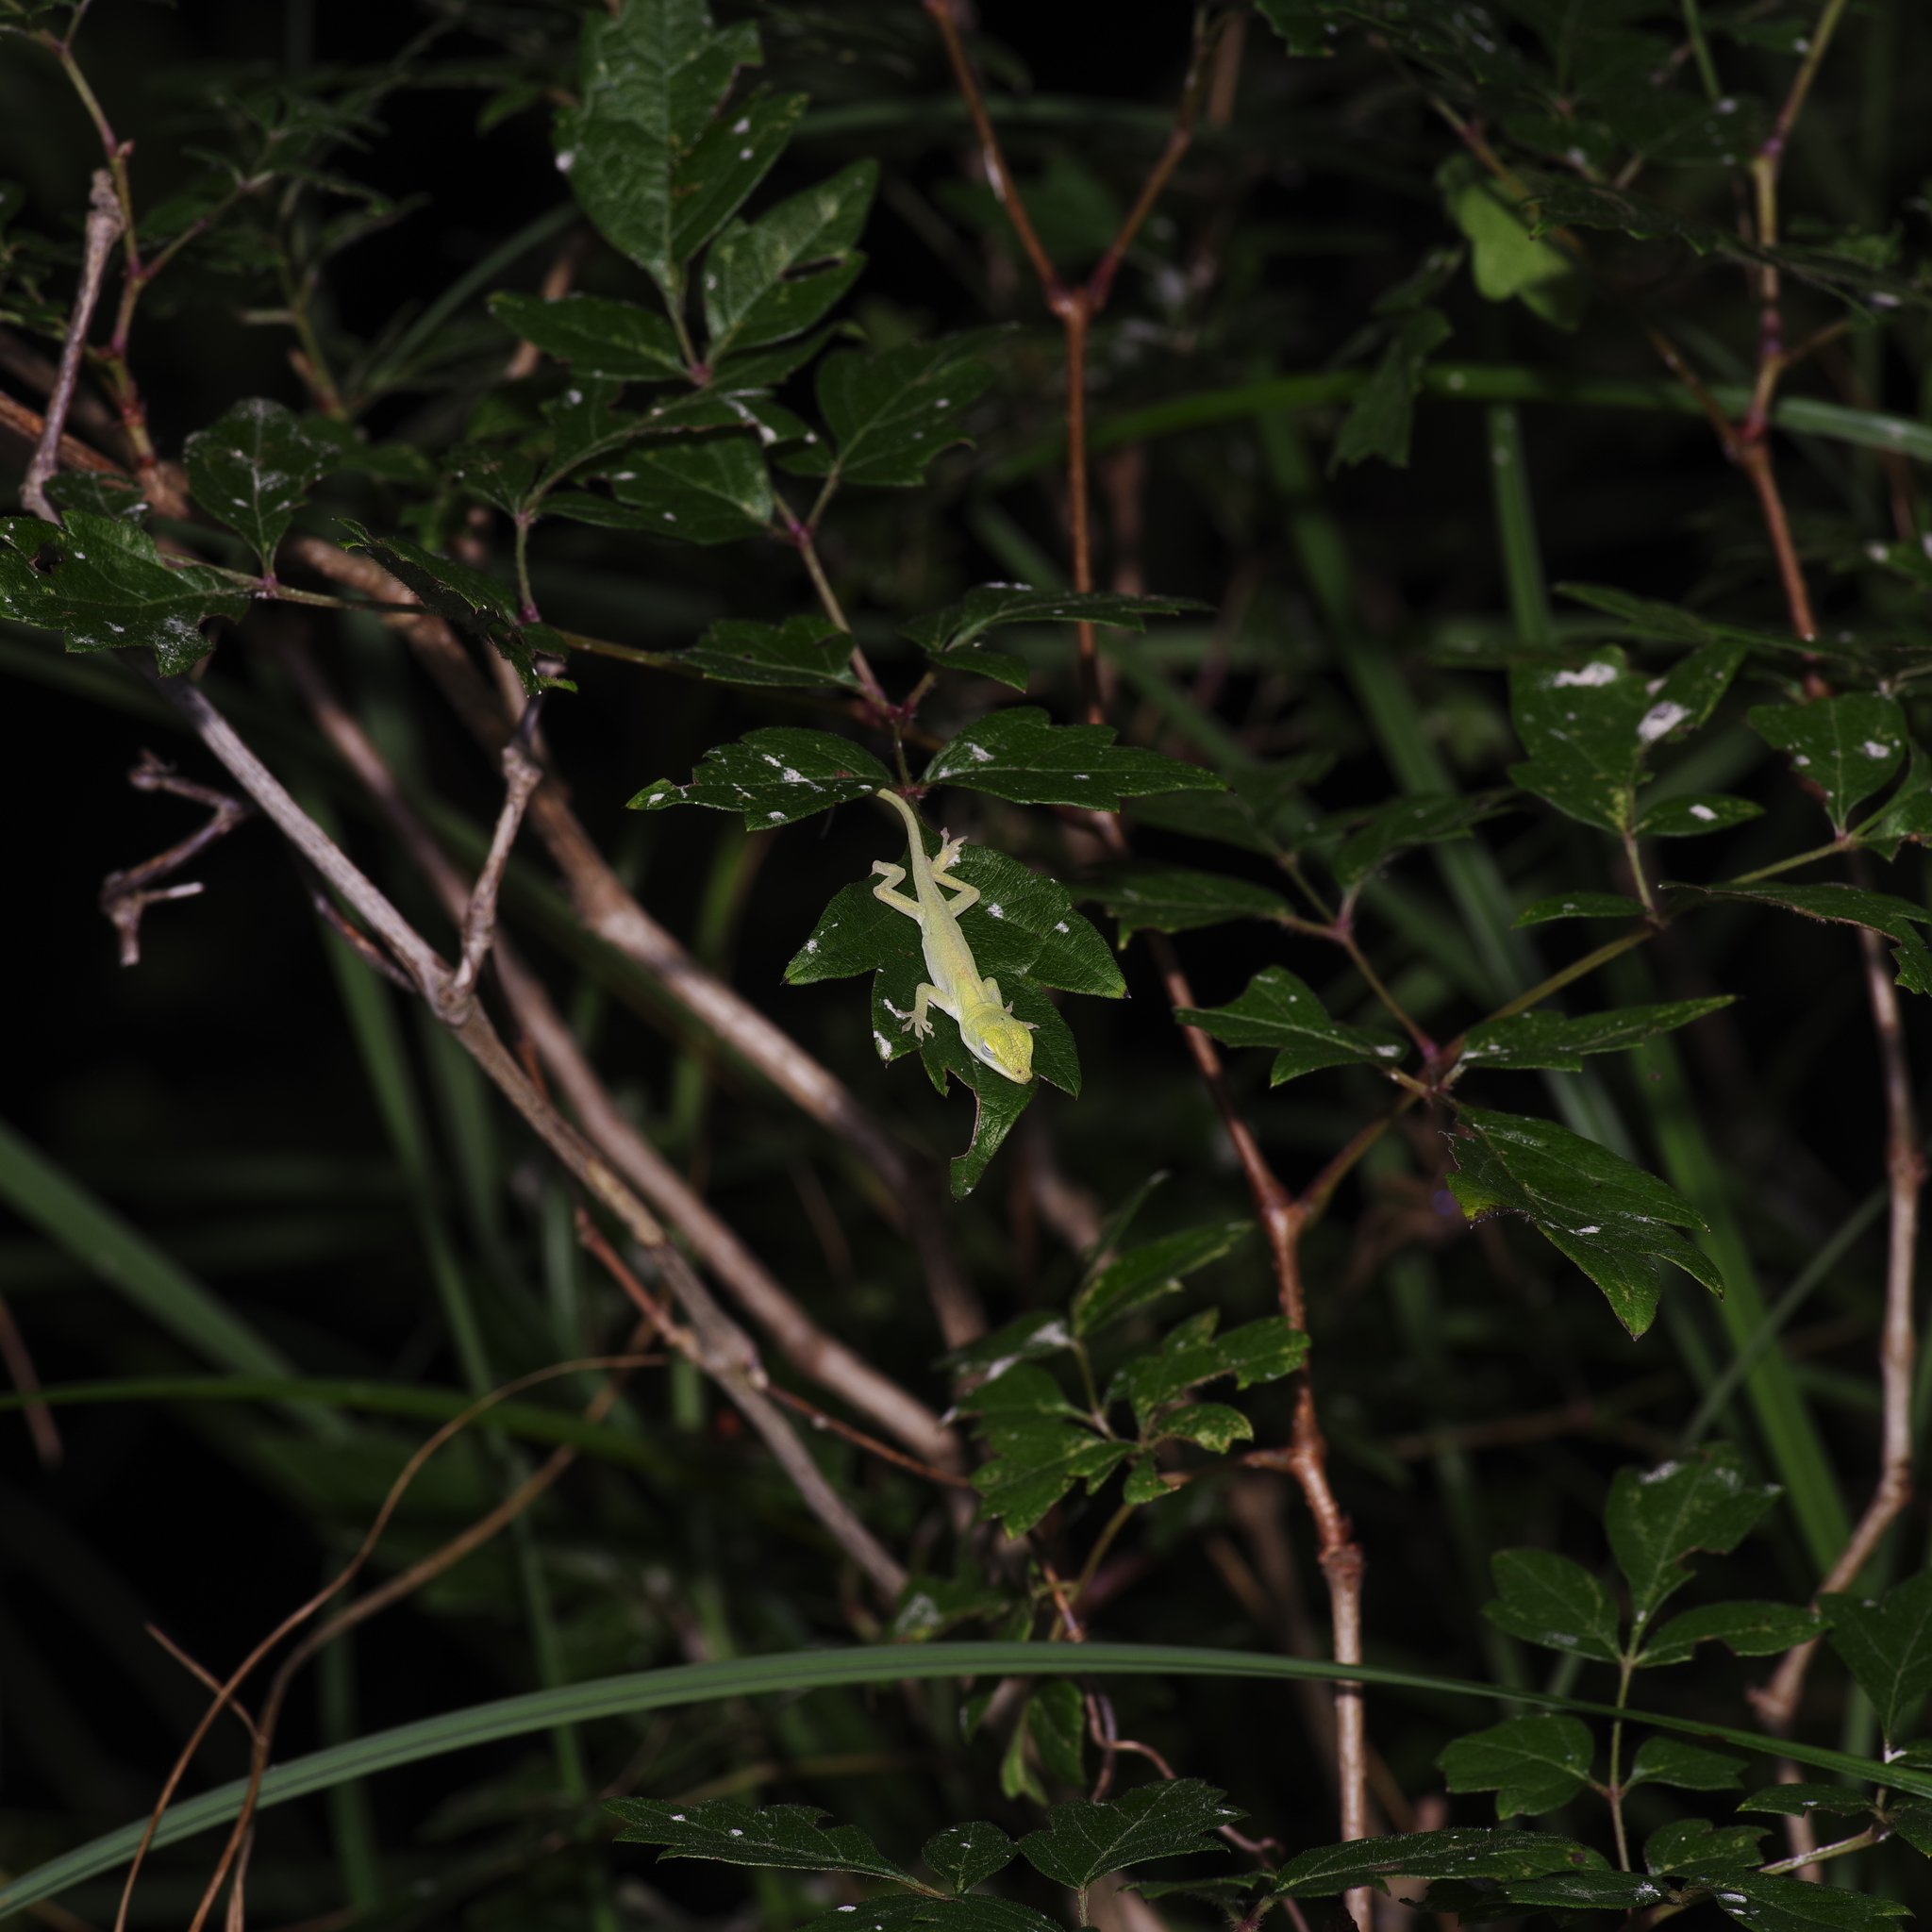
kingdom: Animalia
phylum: Chordata
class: Squamata
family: Dactyloidae
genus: Anolis
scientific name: Anolis carolinensis
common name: Green anole
